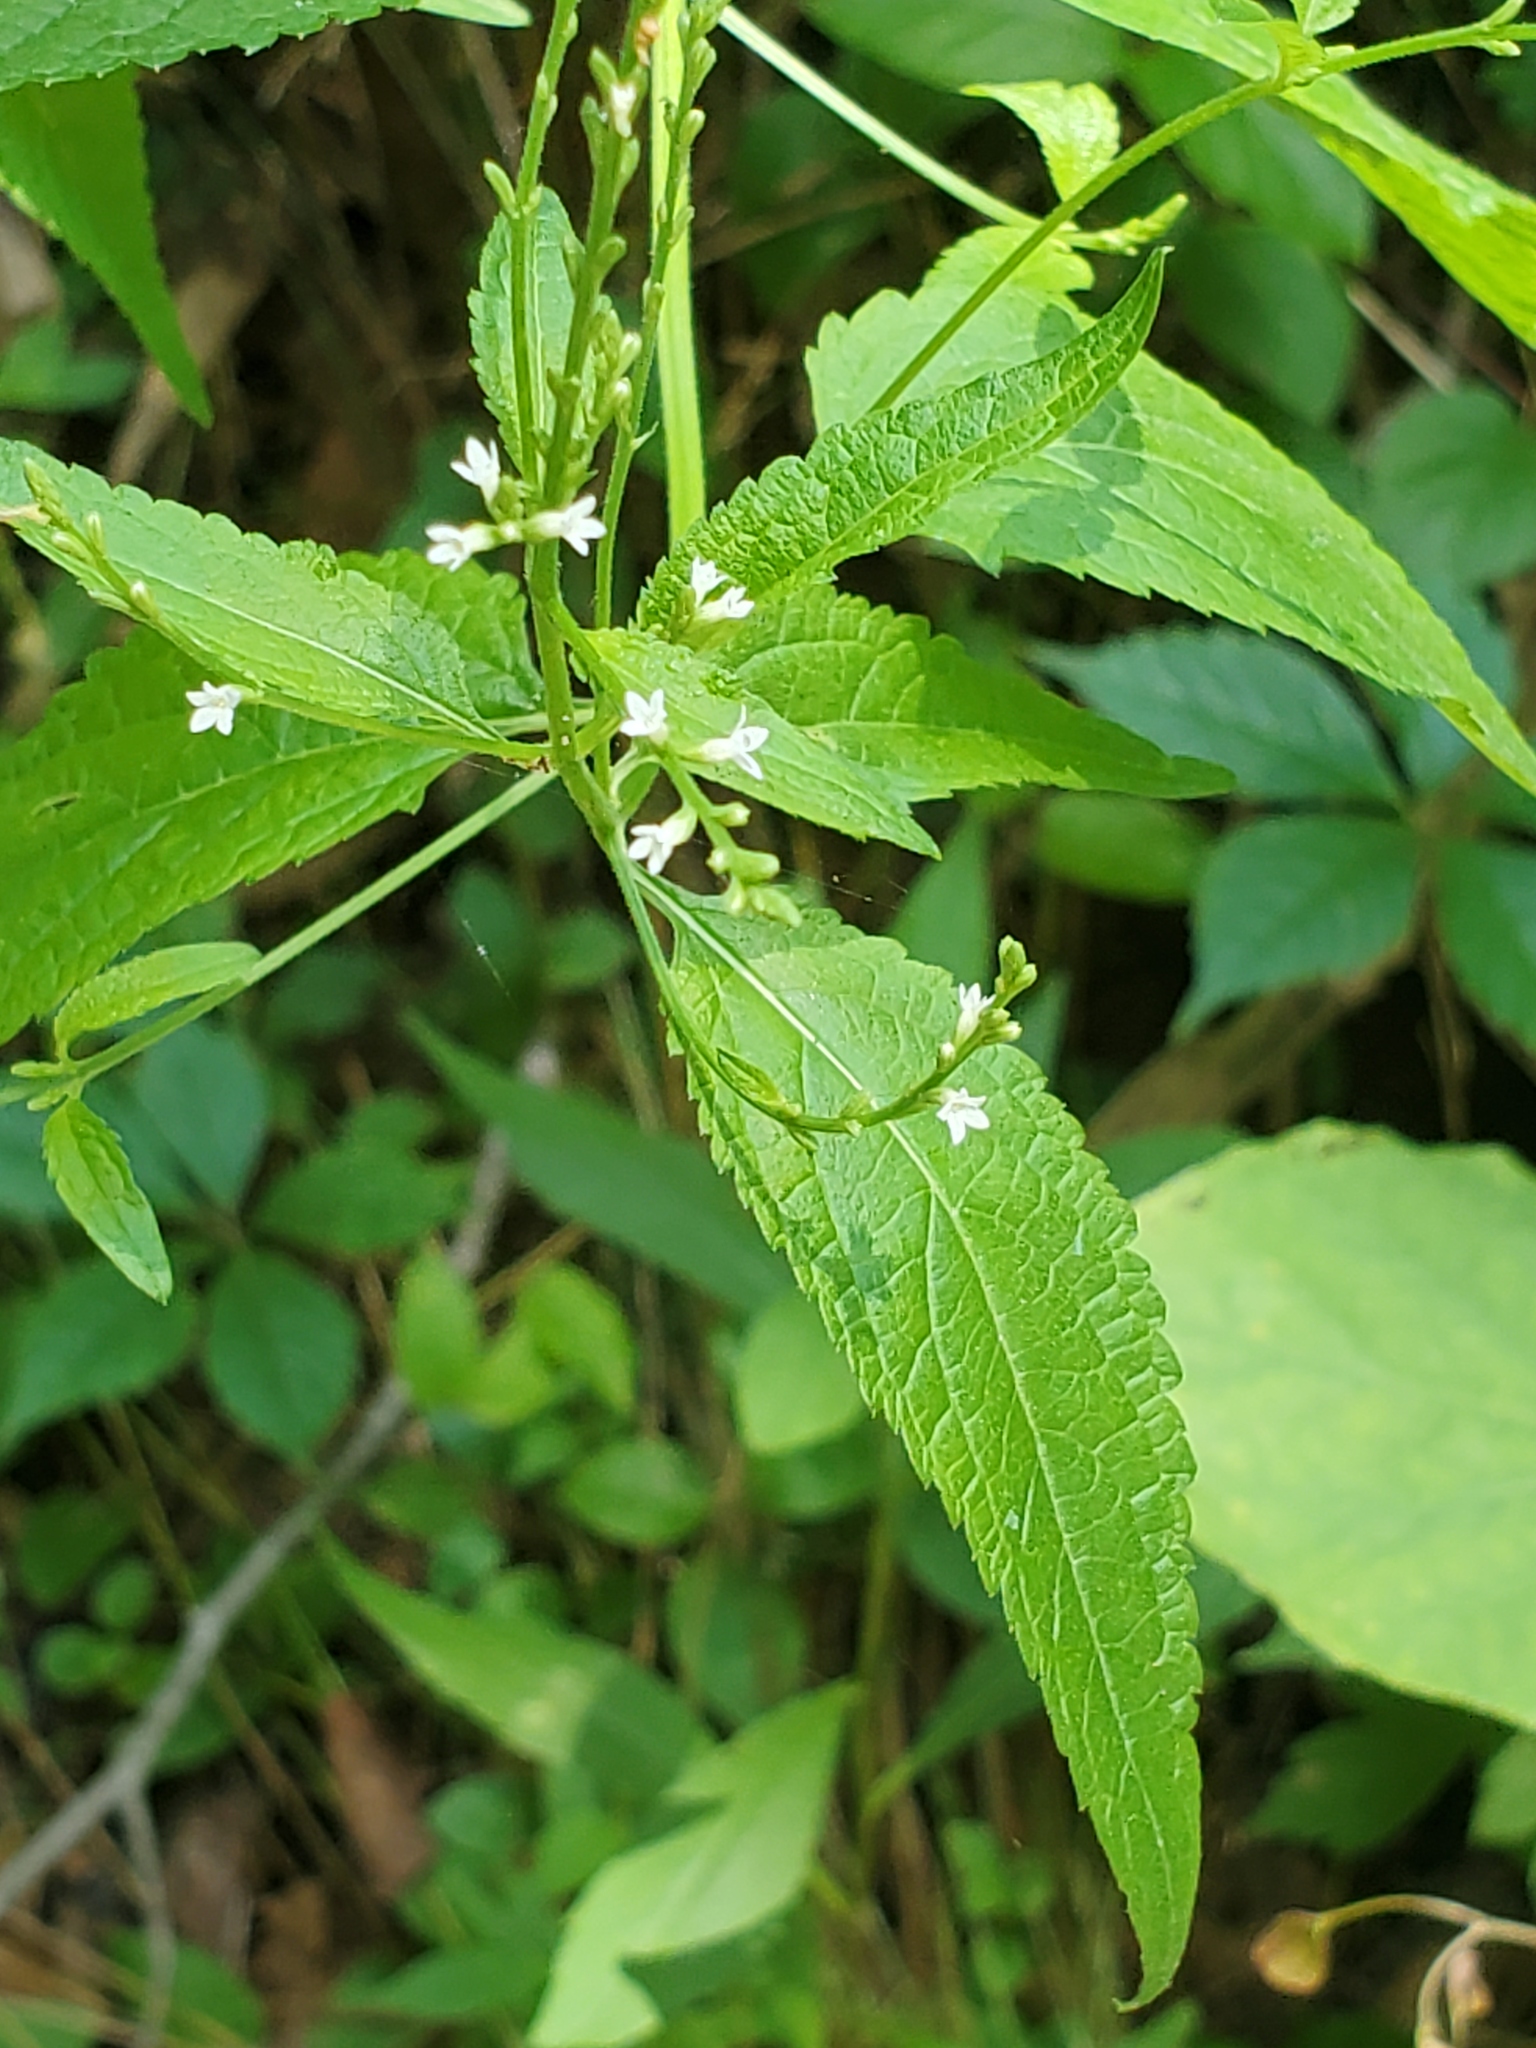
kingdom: Plantae
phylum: Tracheophyta
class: Magnoliopsida
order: Lamiales
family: Verbenaceae
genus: Verbena
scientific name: Verbena urticifolia
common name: Nettle-leaved vervain
